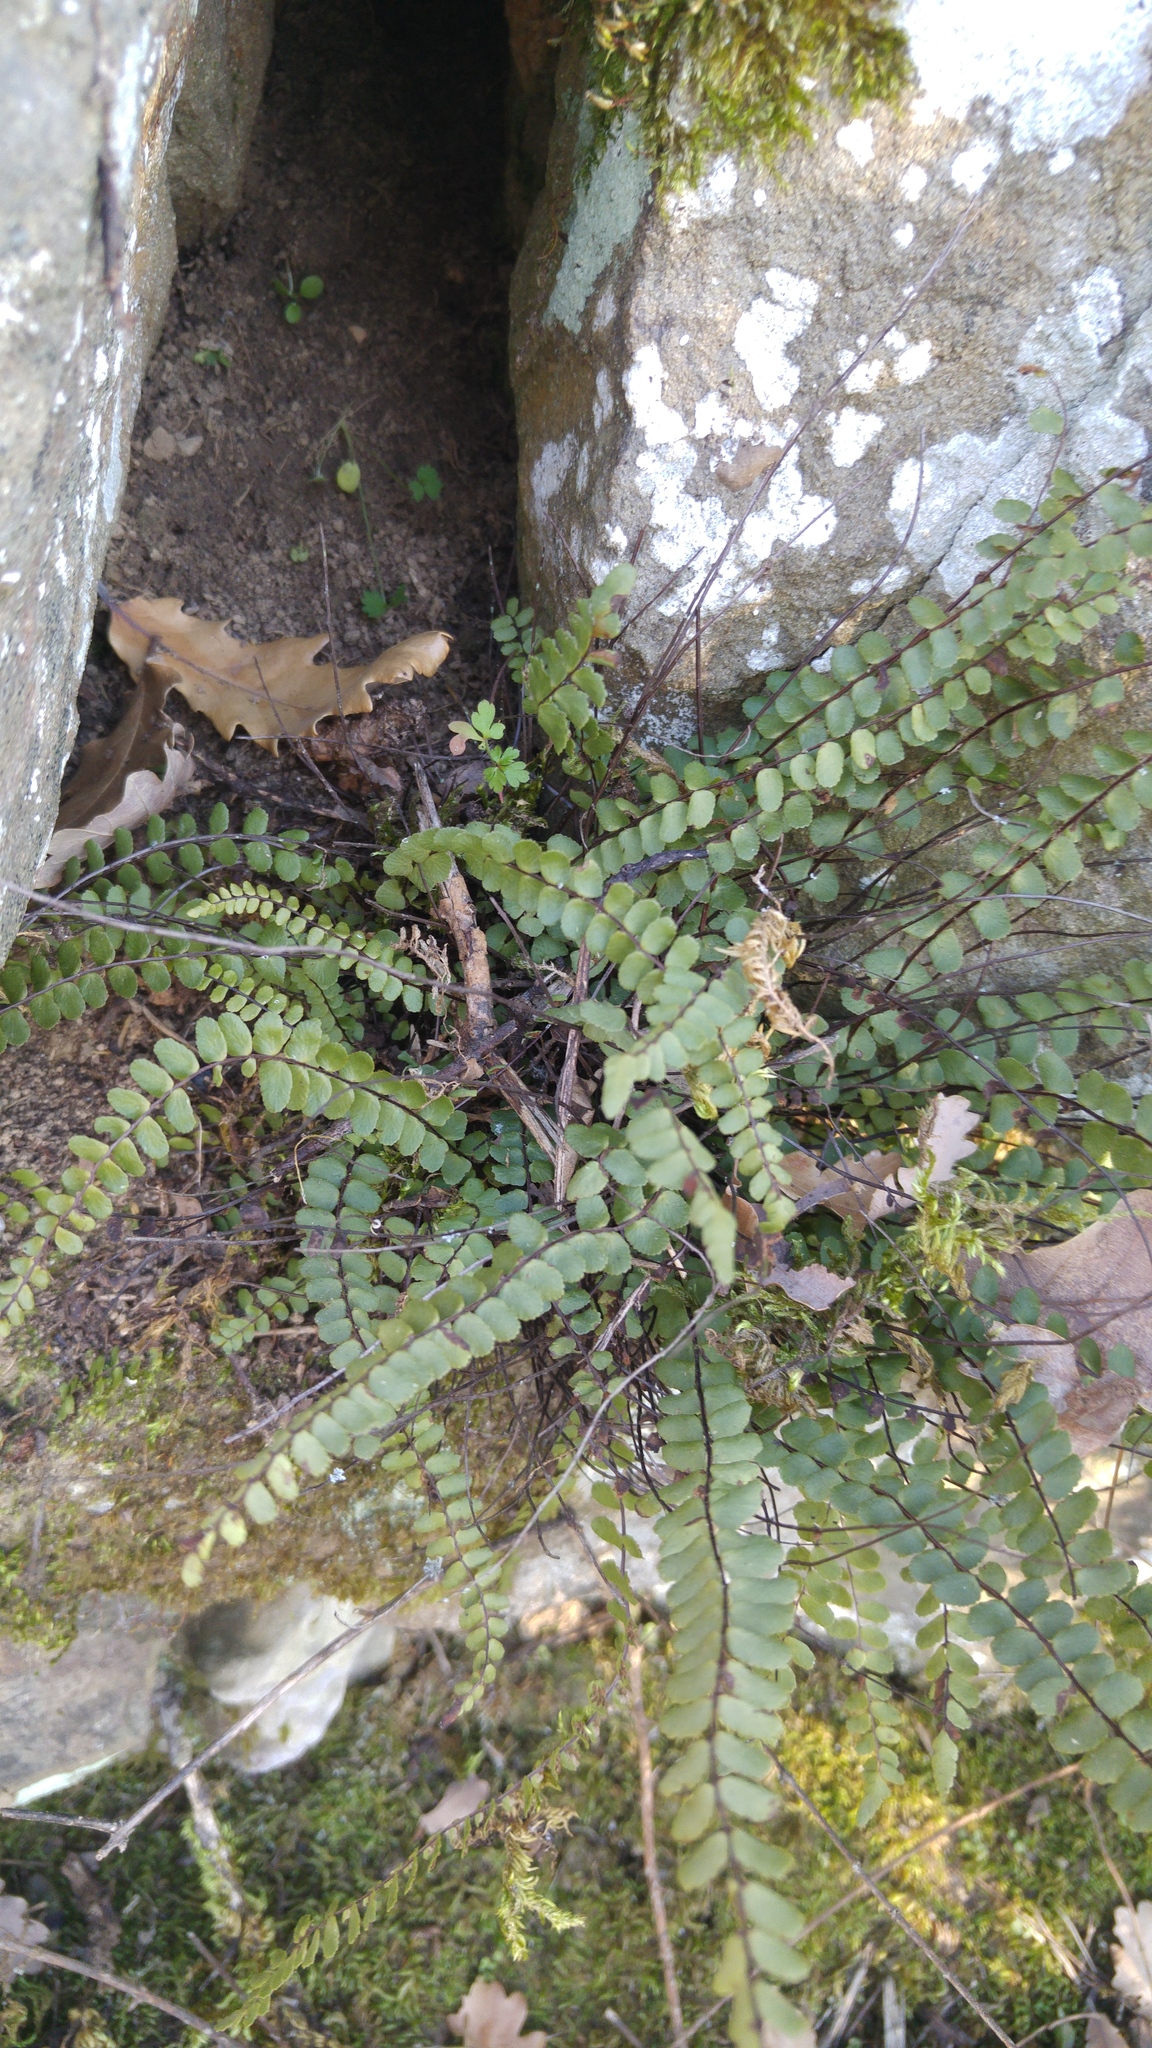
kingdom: Plantae
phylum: Tracheophyta
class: Polypodiopsida
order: Polypodiales
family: Aspleniaceae
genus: Asplenium
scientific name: Asplenium trichomanes
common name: Maidenhair spleenwort
